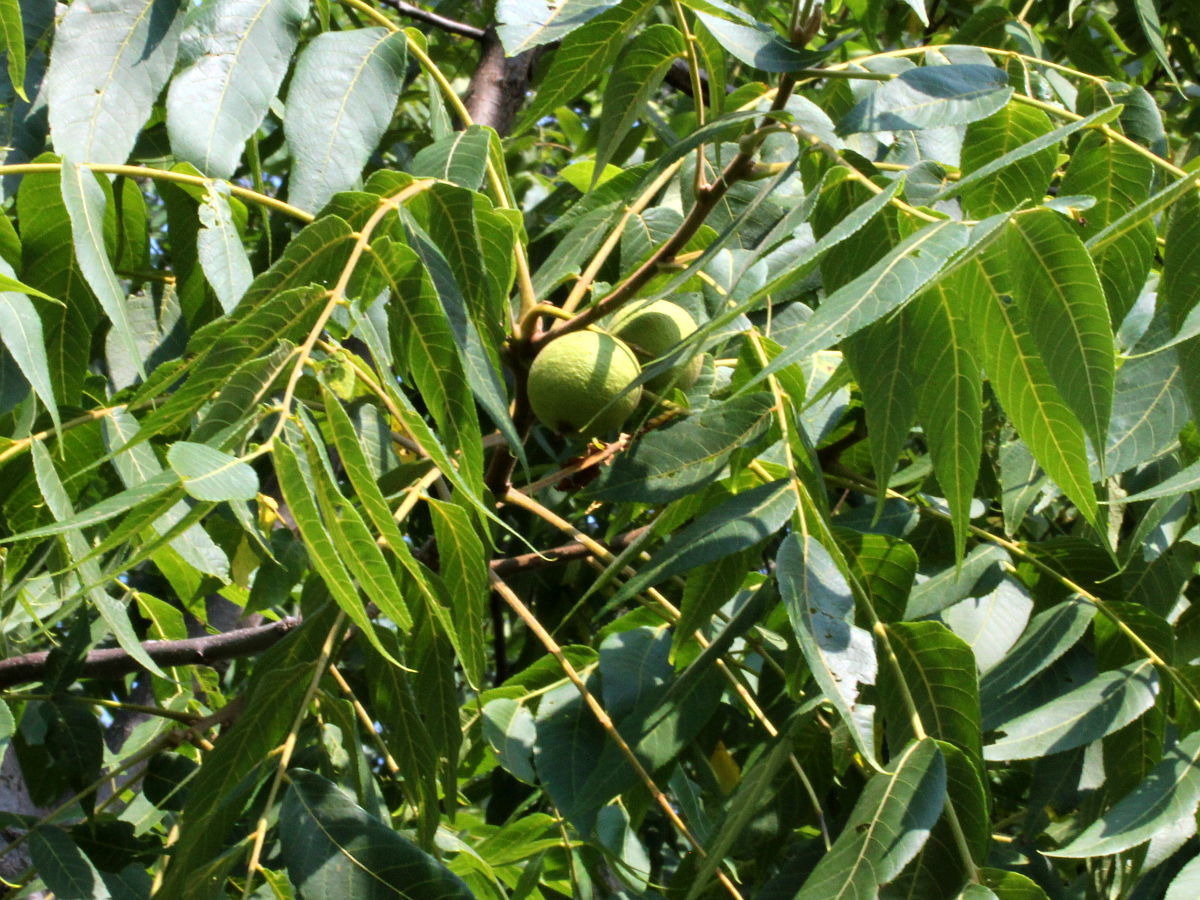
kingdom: Plantae
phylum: Tracheophyta
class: Magnoliopsida
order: Fagales
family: Juglandaceae
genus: Juglans
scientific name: Juglans nigra
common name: Black walnut
